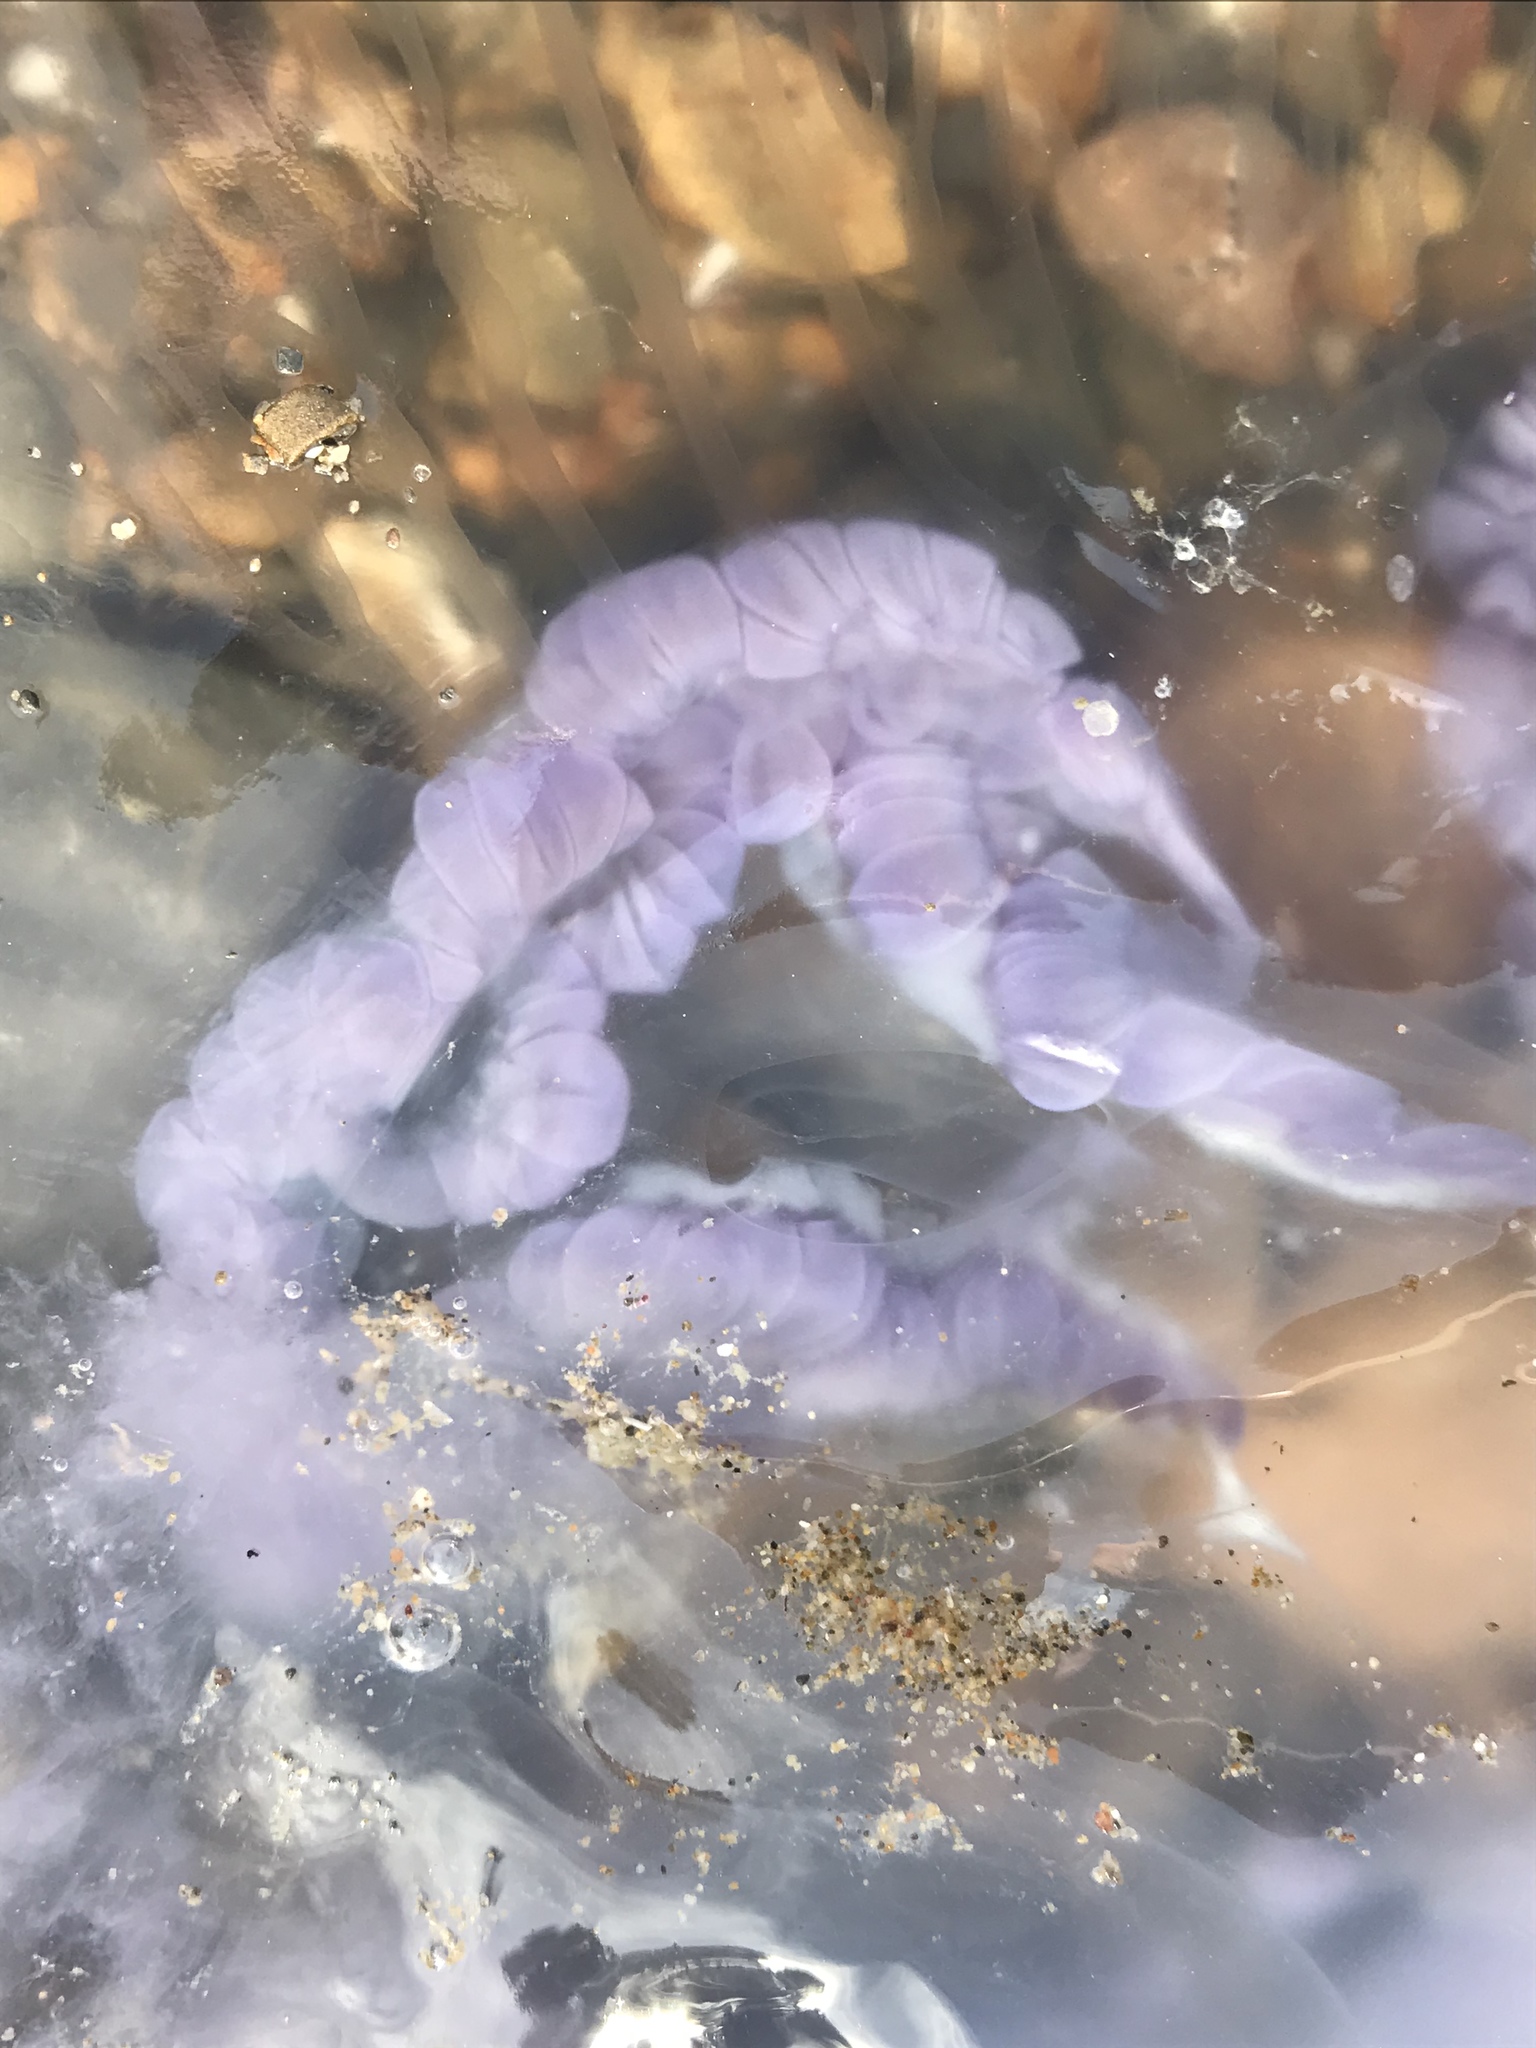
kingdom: Animalia
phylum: Cnidaria
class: Scyphozoa
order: Semaeostomeae
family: Ulmaridae
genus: Aurelia
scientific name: Aurelia labiata
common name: Pacific moon jelly
